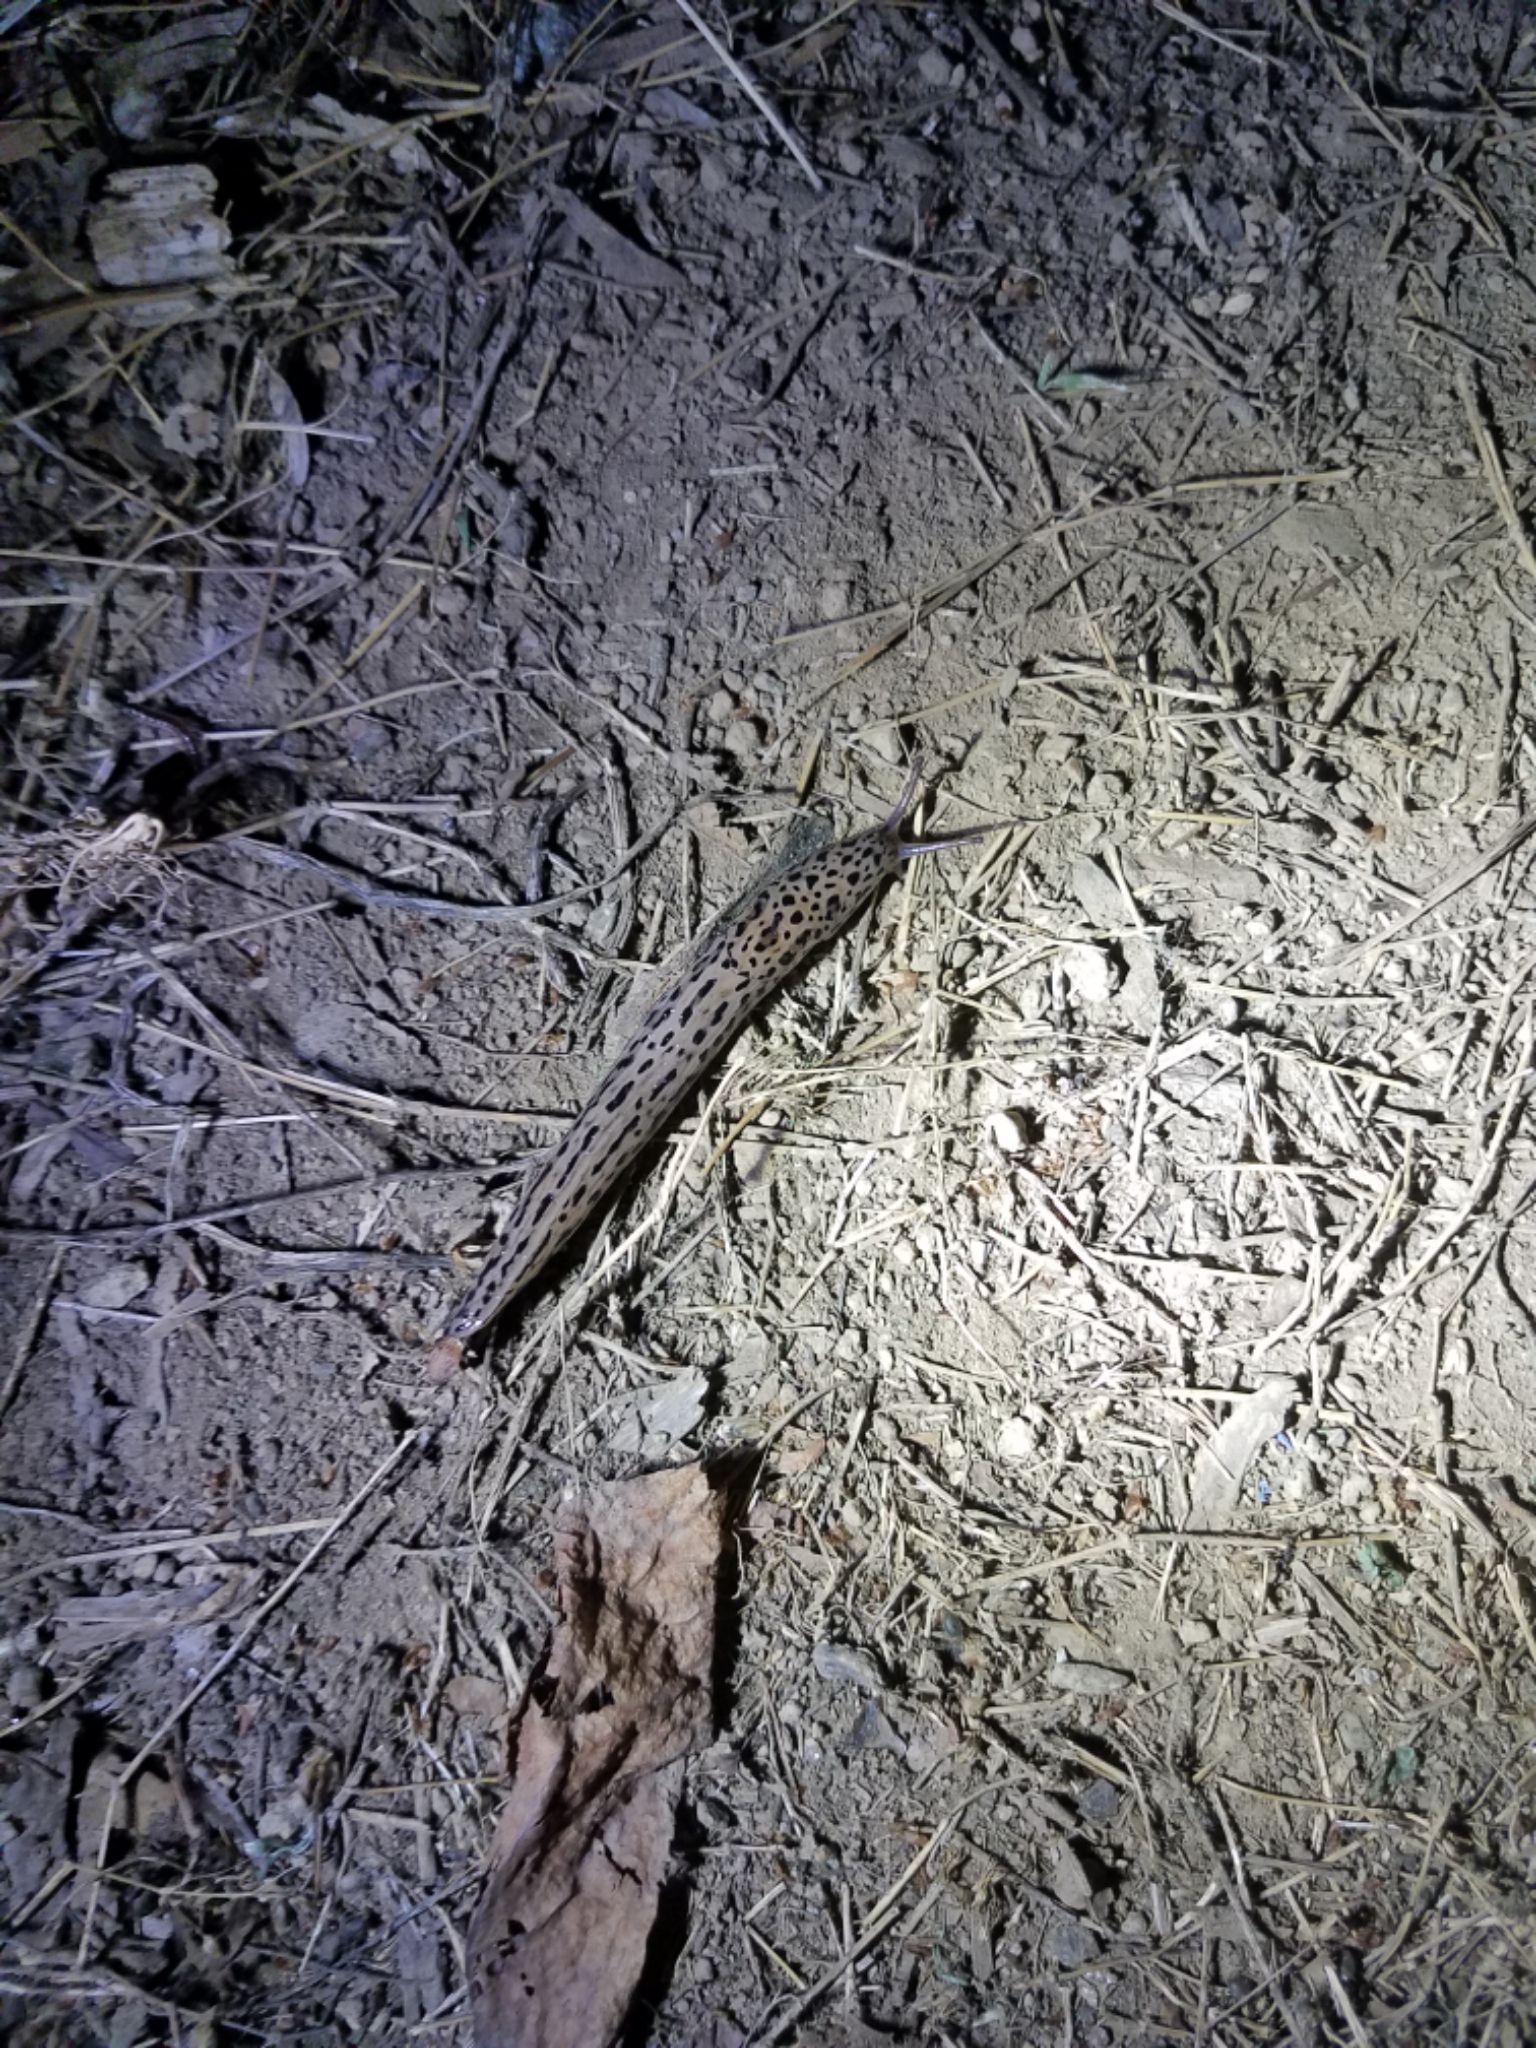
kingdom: Animalia
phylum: Mollusca
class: Gastropoda
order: Stylommatophora
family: Limacidae
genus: Limax
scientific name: Limax maximus
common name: Great grey slug
